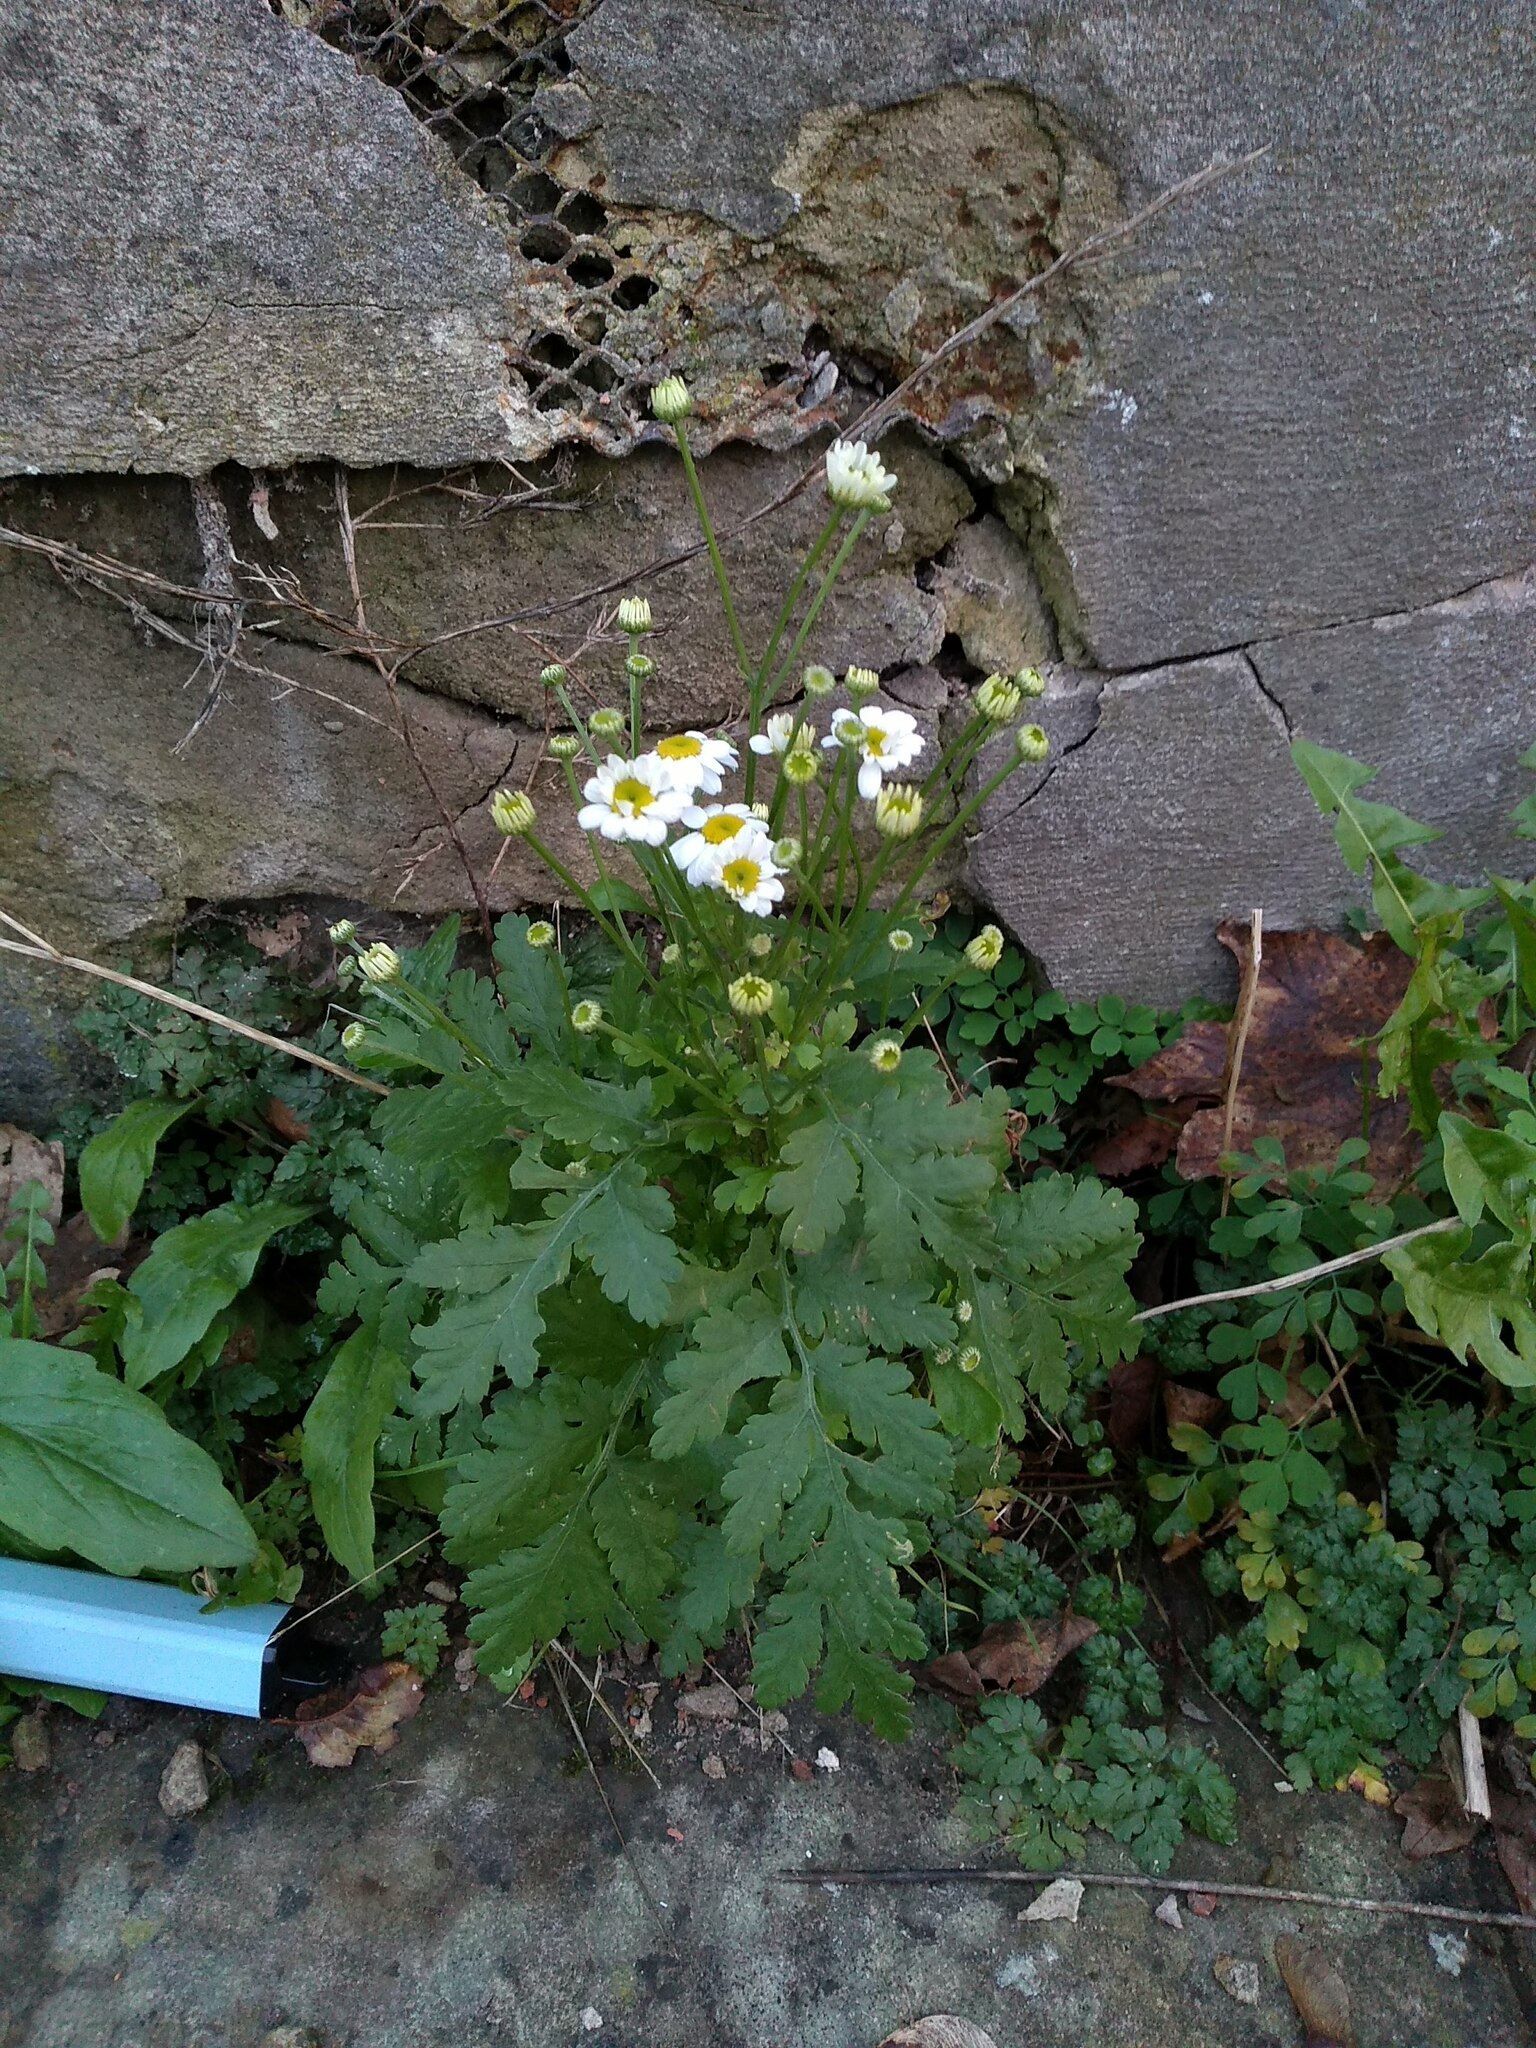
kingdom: Plantae
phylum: Tracheophyta
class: Magnoliopsida
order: Asterales
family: Asteraceae
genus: Tanacetum
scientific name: Tanacetum parthenium
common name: Feverfew
